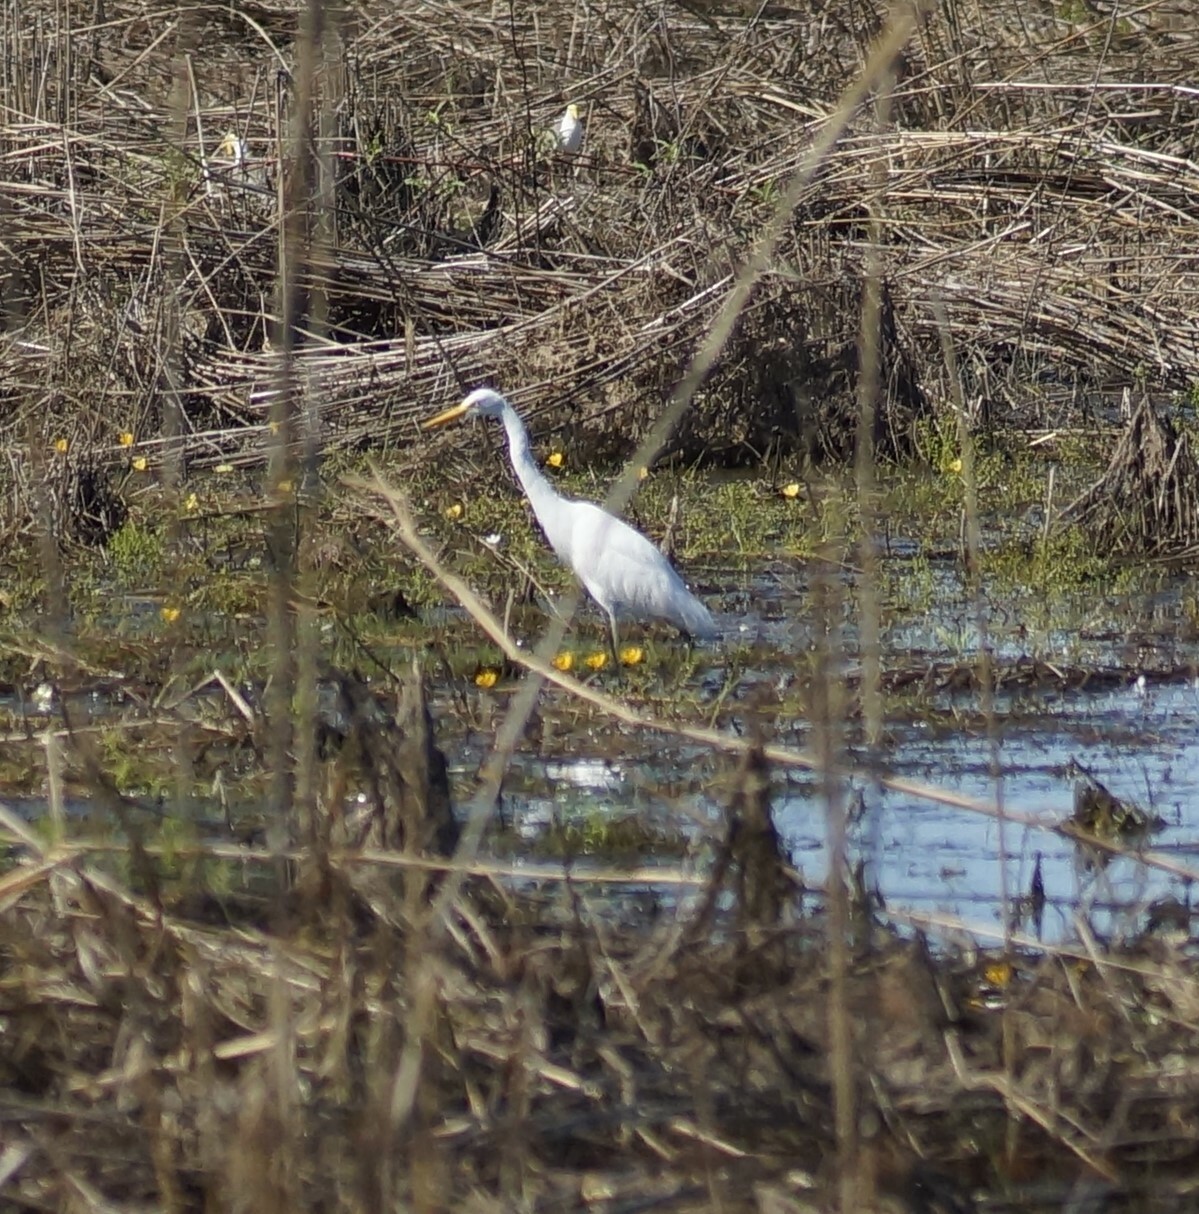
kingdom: Animalia
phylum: Chordata
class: Aves
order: Pelecaniformes
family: Ardeidae
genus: Ardea
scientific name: Ardea alba
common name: Great egret
